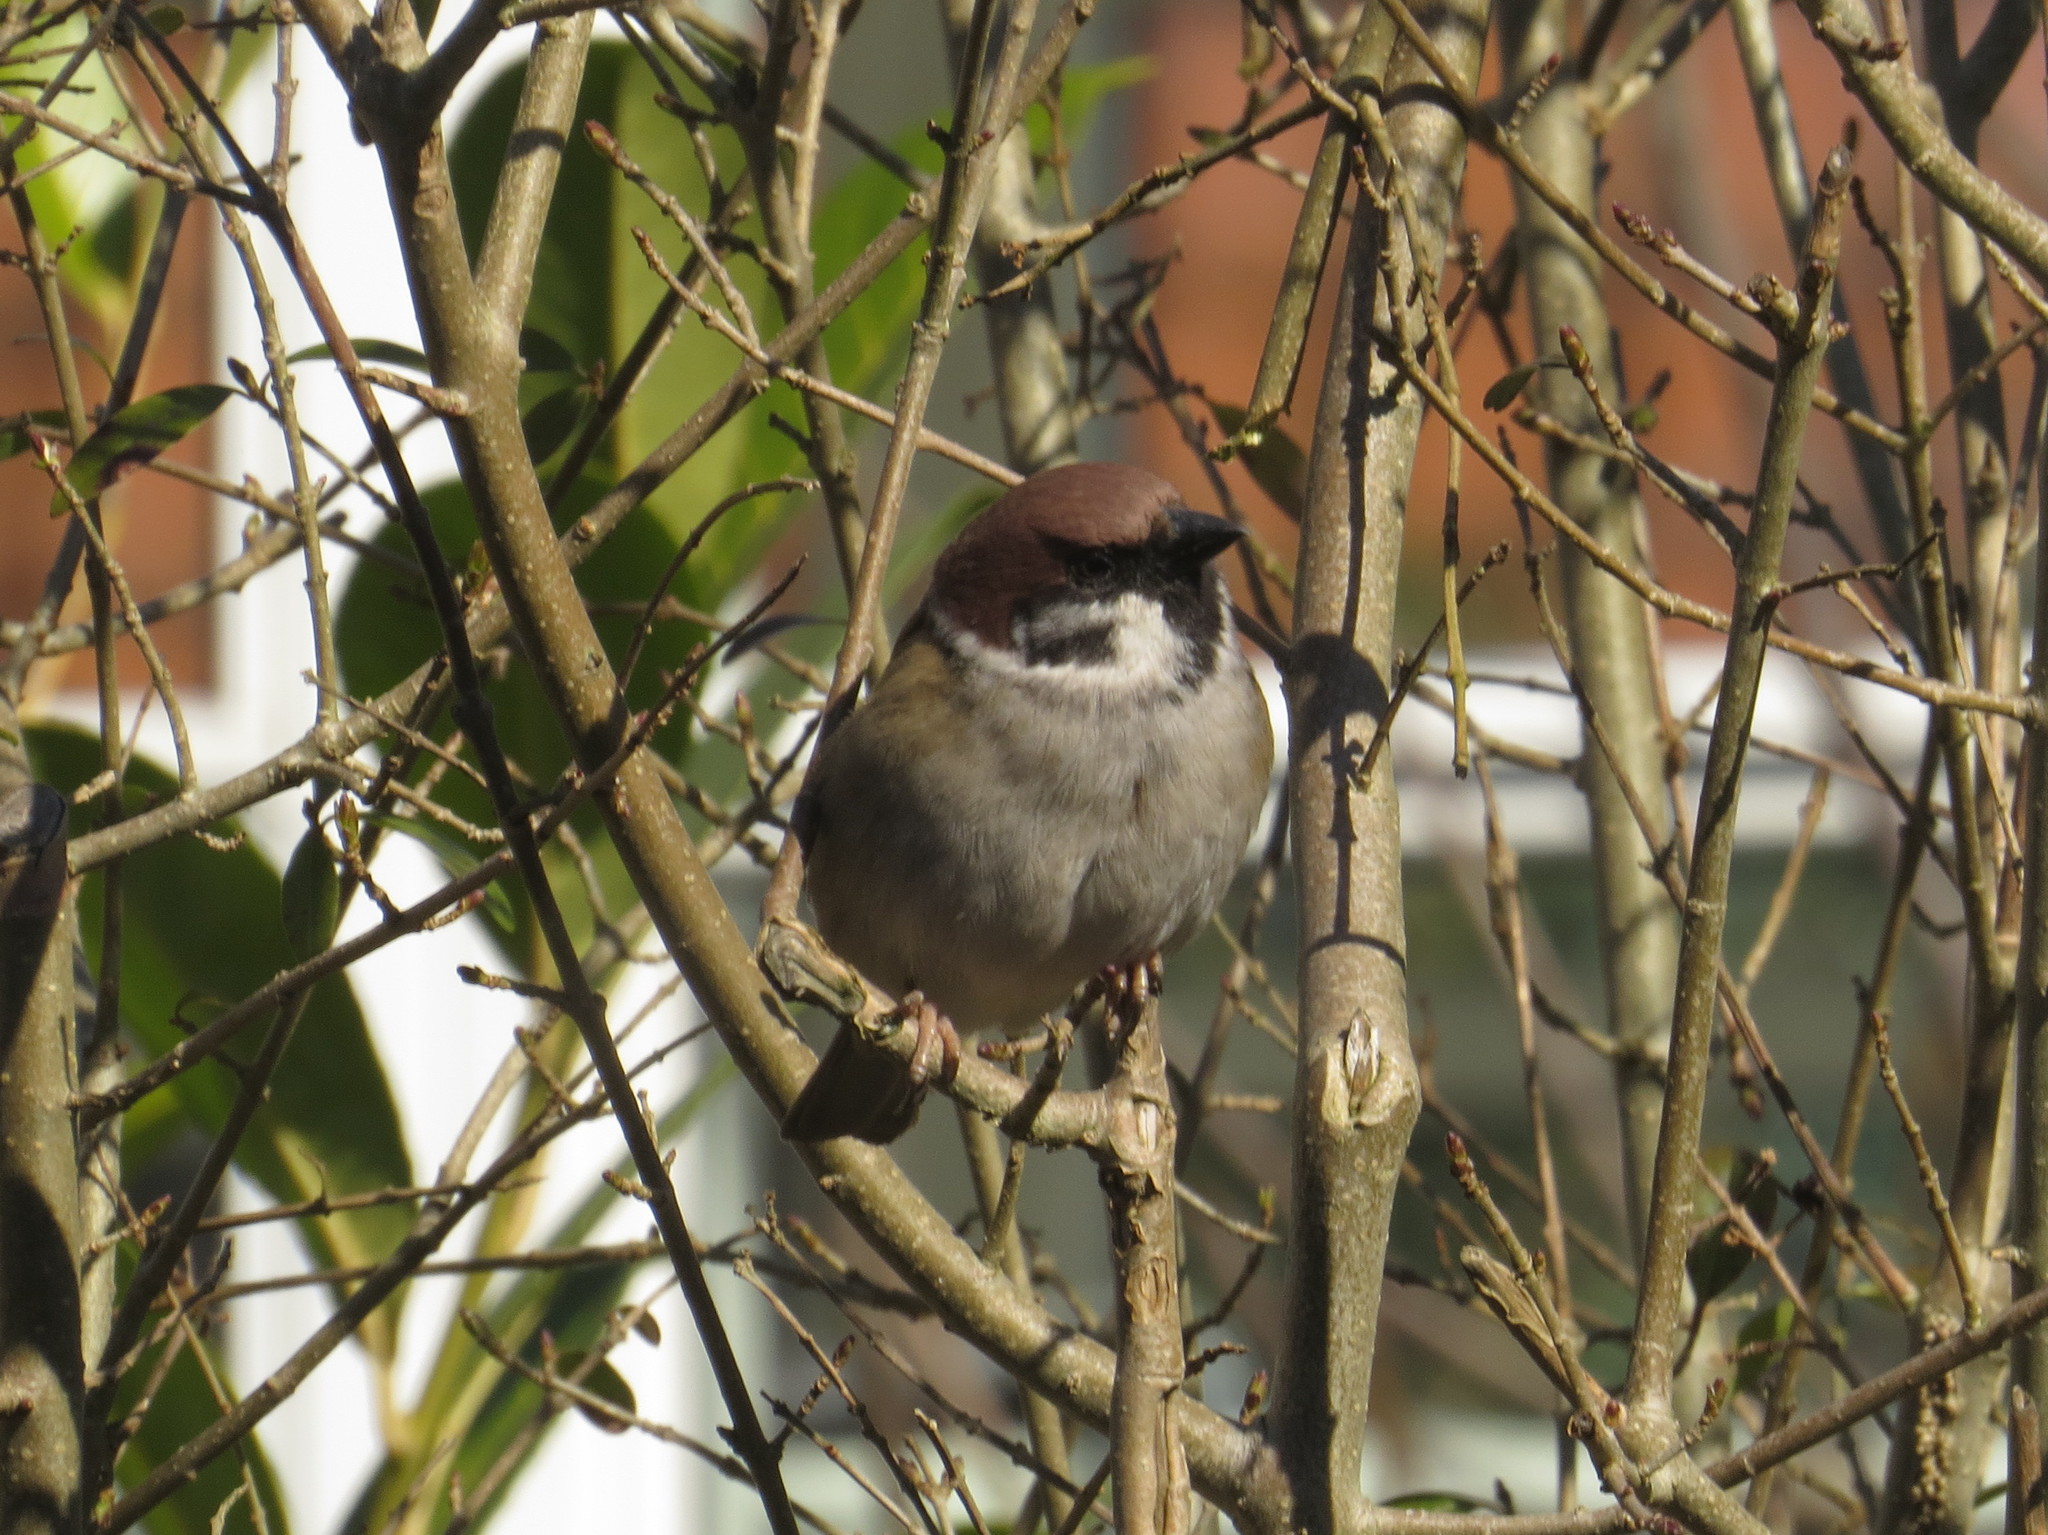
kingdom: Animalia
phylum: Chordata
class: Aves
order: Passeriformes
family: Passeridae
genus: Passer
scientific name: Passer montanus
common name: Eurasian tree sparrow
